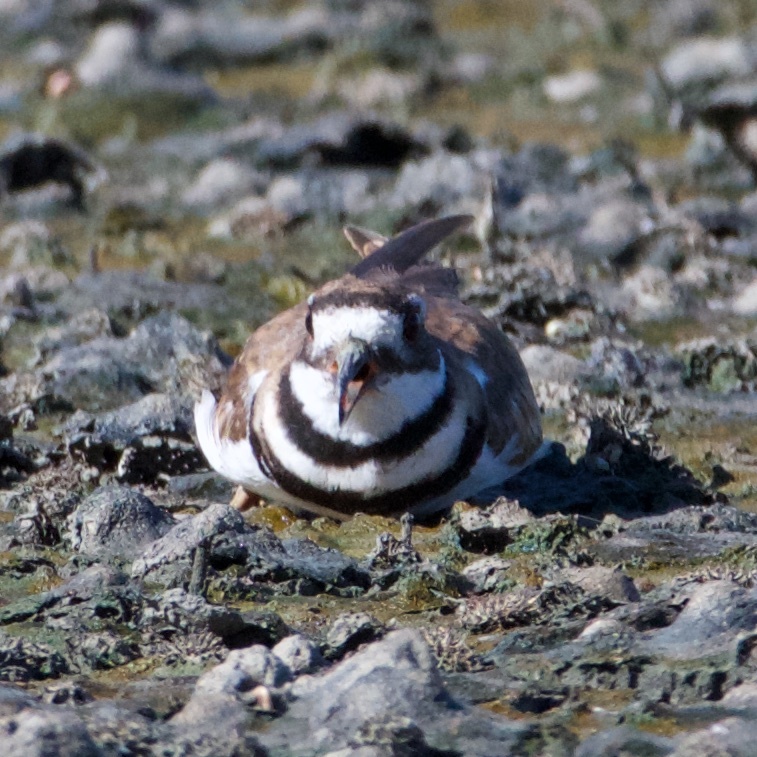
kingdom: Animalia
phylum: Chordata
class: Aves
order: Charadriiformes
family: Charadriidae
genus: Charadrius
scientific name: Charadrius vociferus
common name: Killdeer
